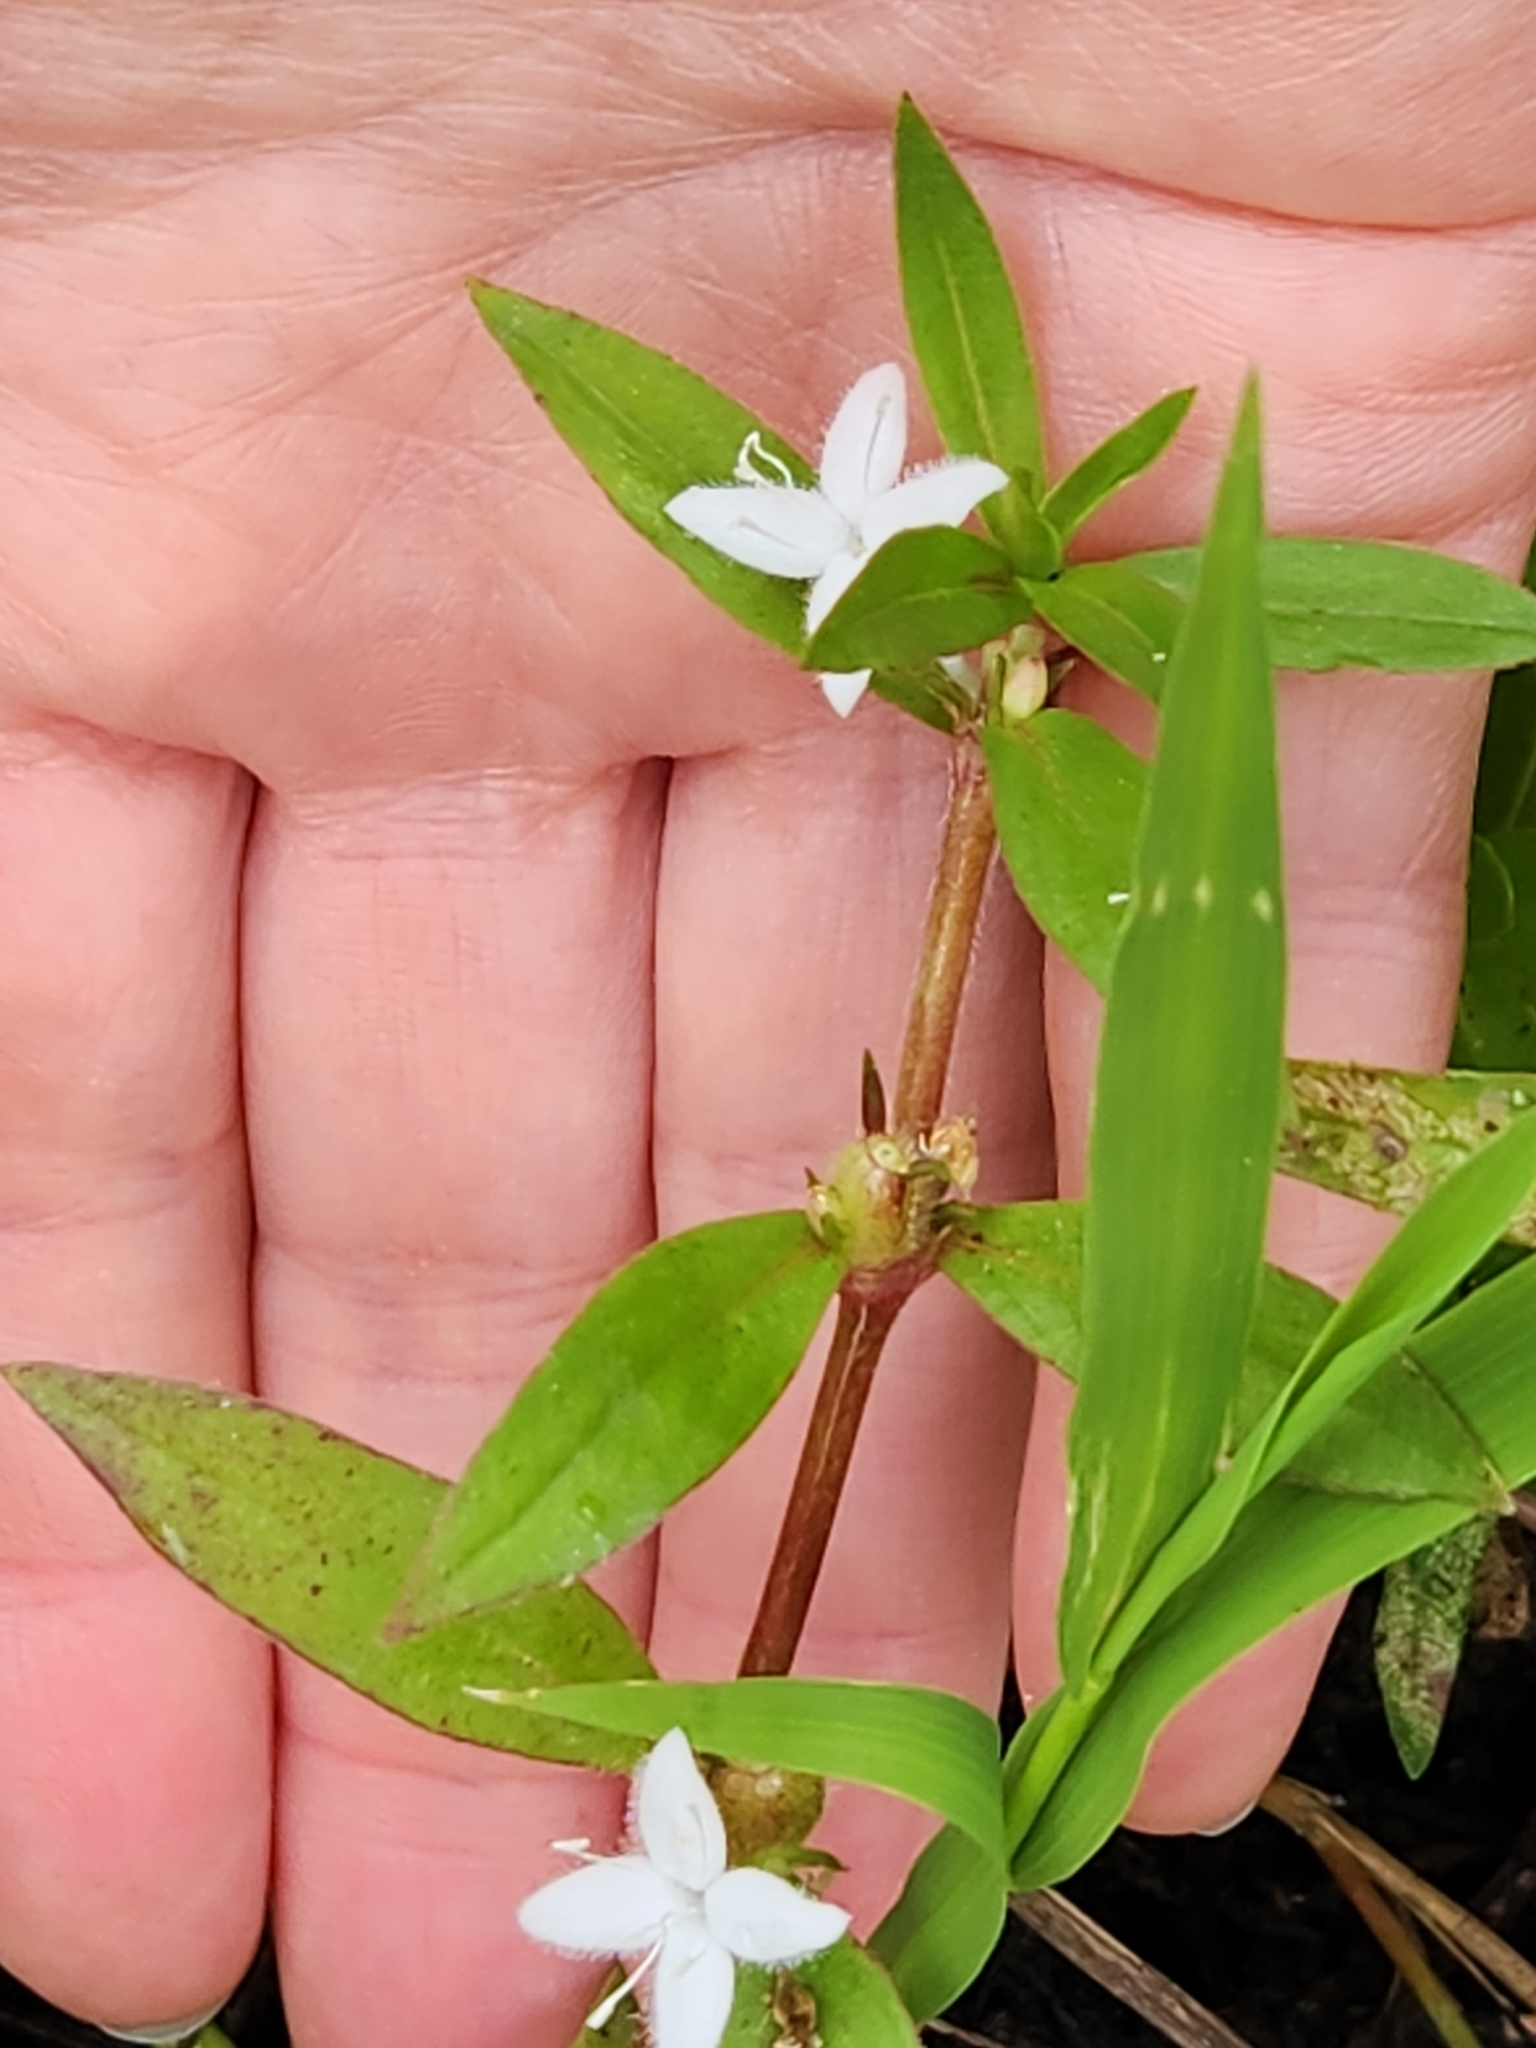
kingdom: Plantae
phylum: Tracheophyta
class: Magnoliopsida
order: Gentianales
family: Rubiaceae
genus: Diodia
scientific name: Diodia virginiana
